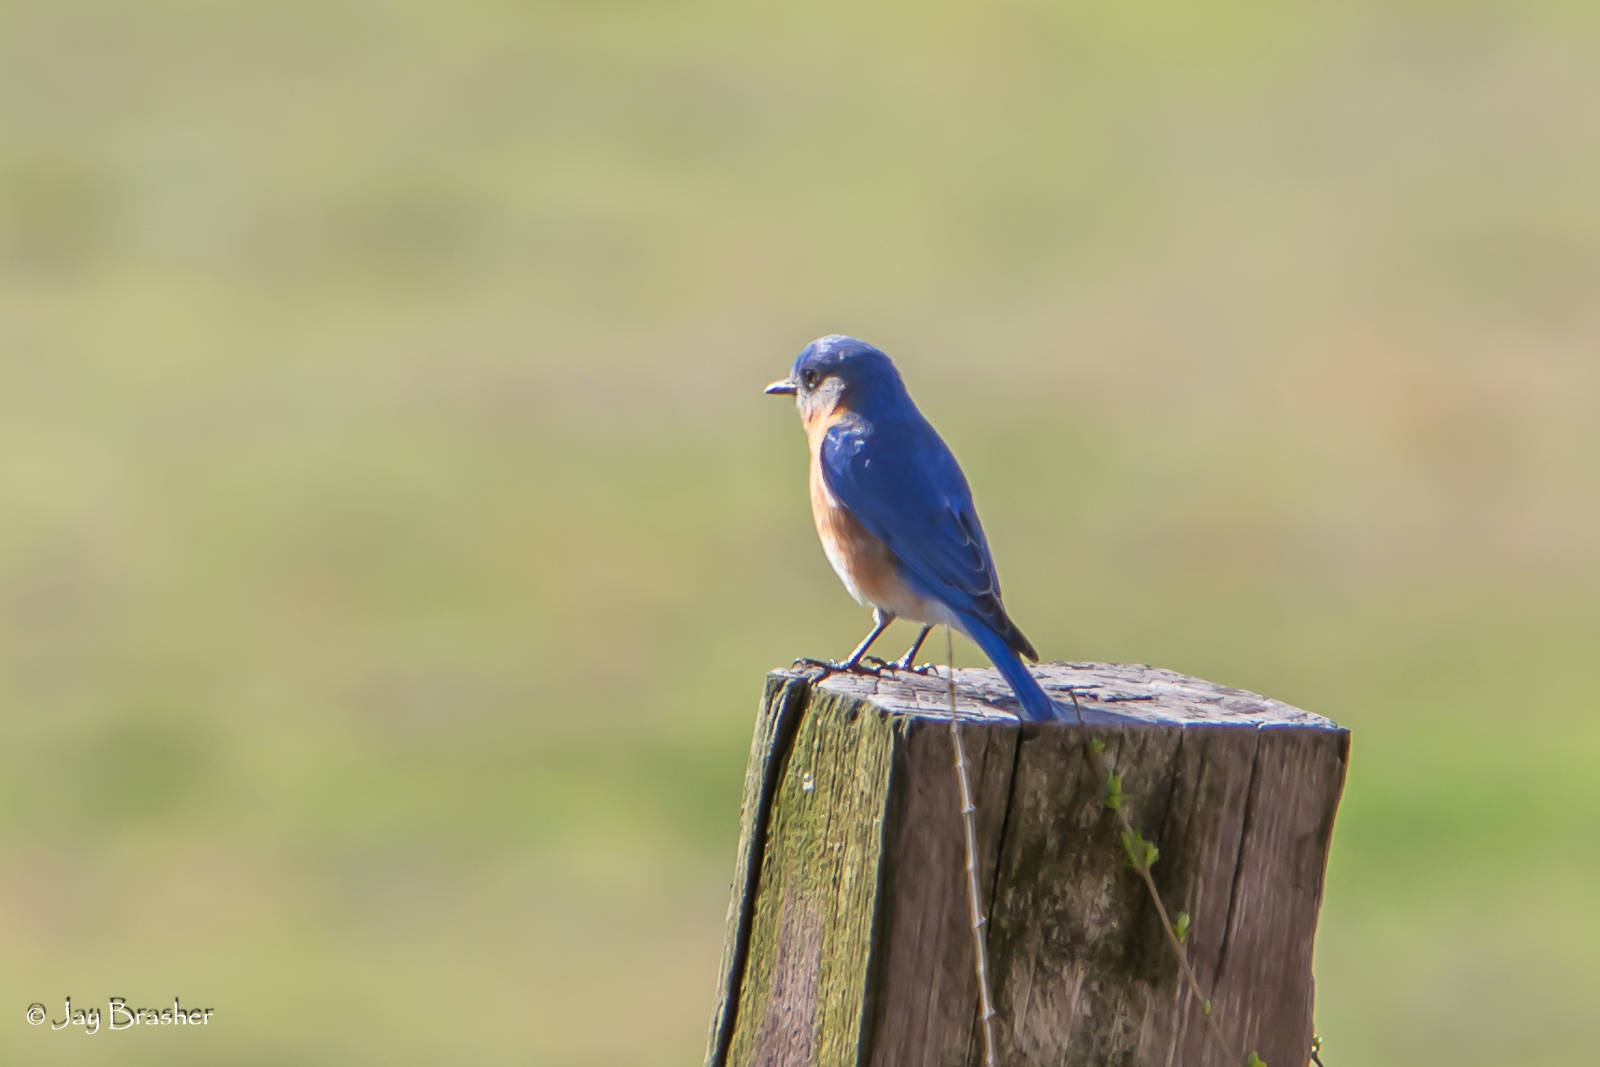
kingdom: Animalia
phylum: Chordata
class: Aves
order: Passeriformes
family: Turdidae
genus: Sialia
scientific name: Sialia sialis
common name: Eastern bluebird
